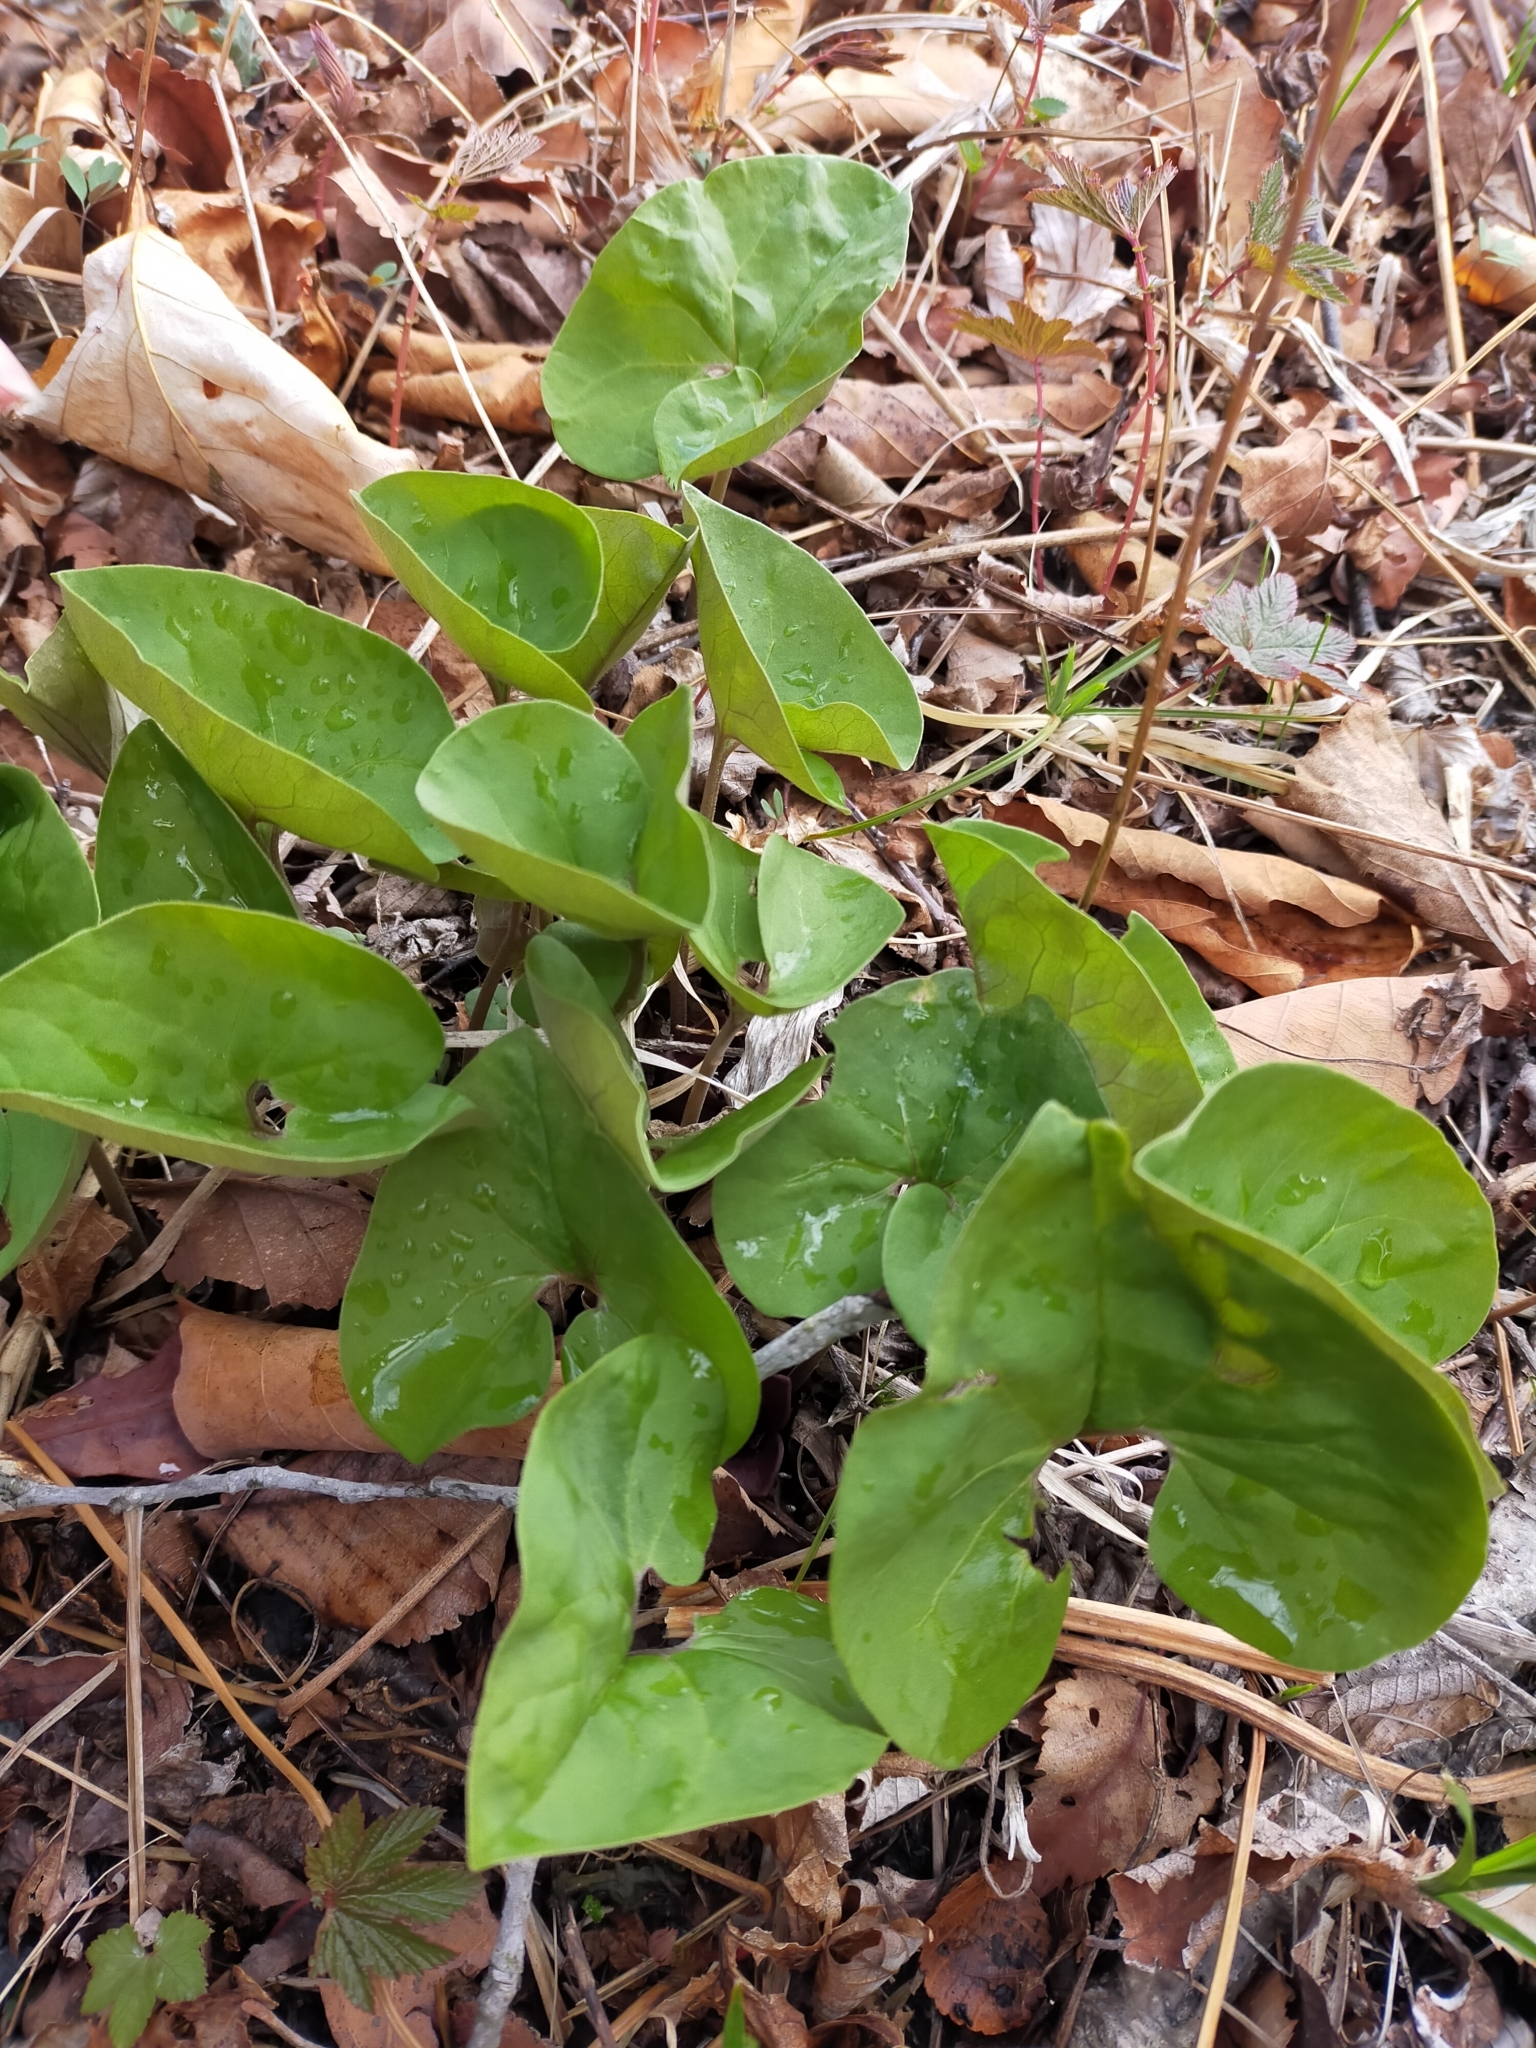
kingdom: Plantae
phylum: Tracheophyta
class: Magnoliopsida
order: Piperales
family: Aristolochiaceae
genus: Asarum
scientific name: Asarum sieboldii
